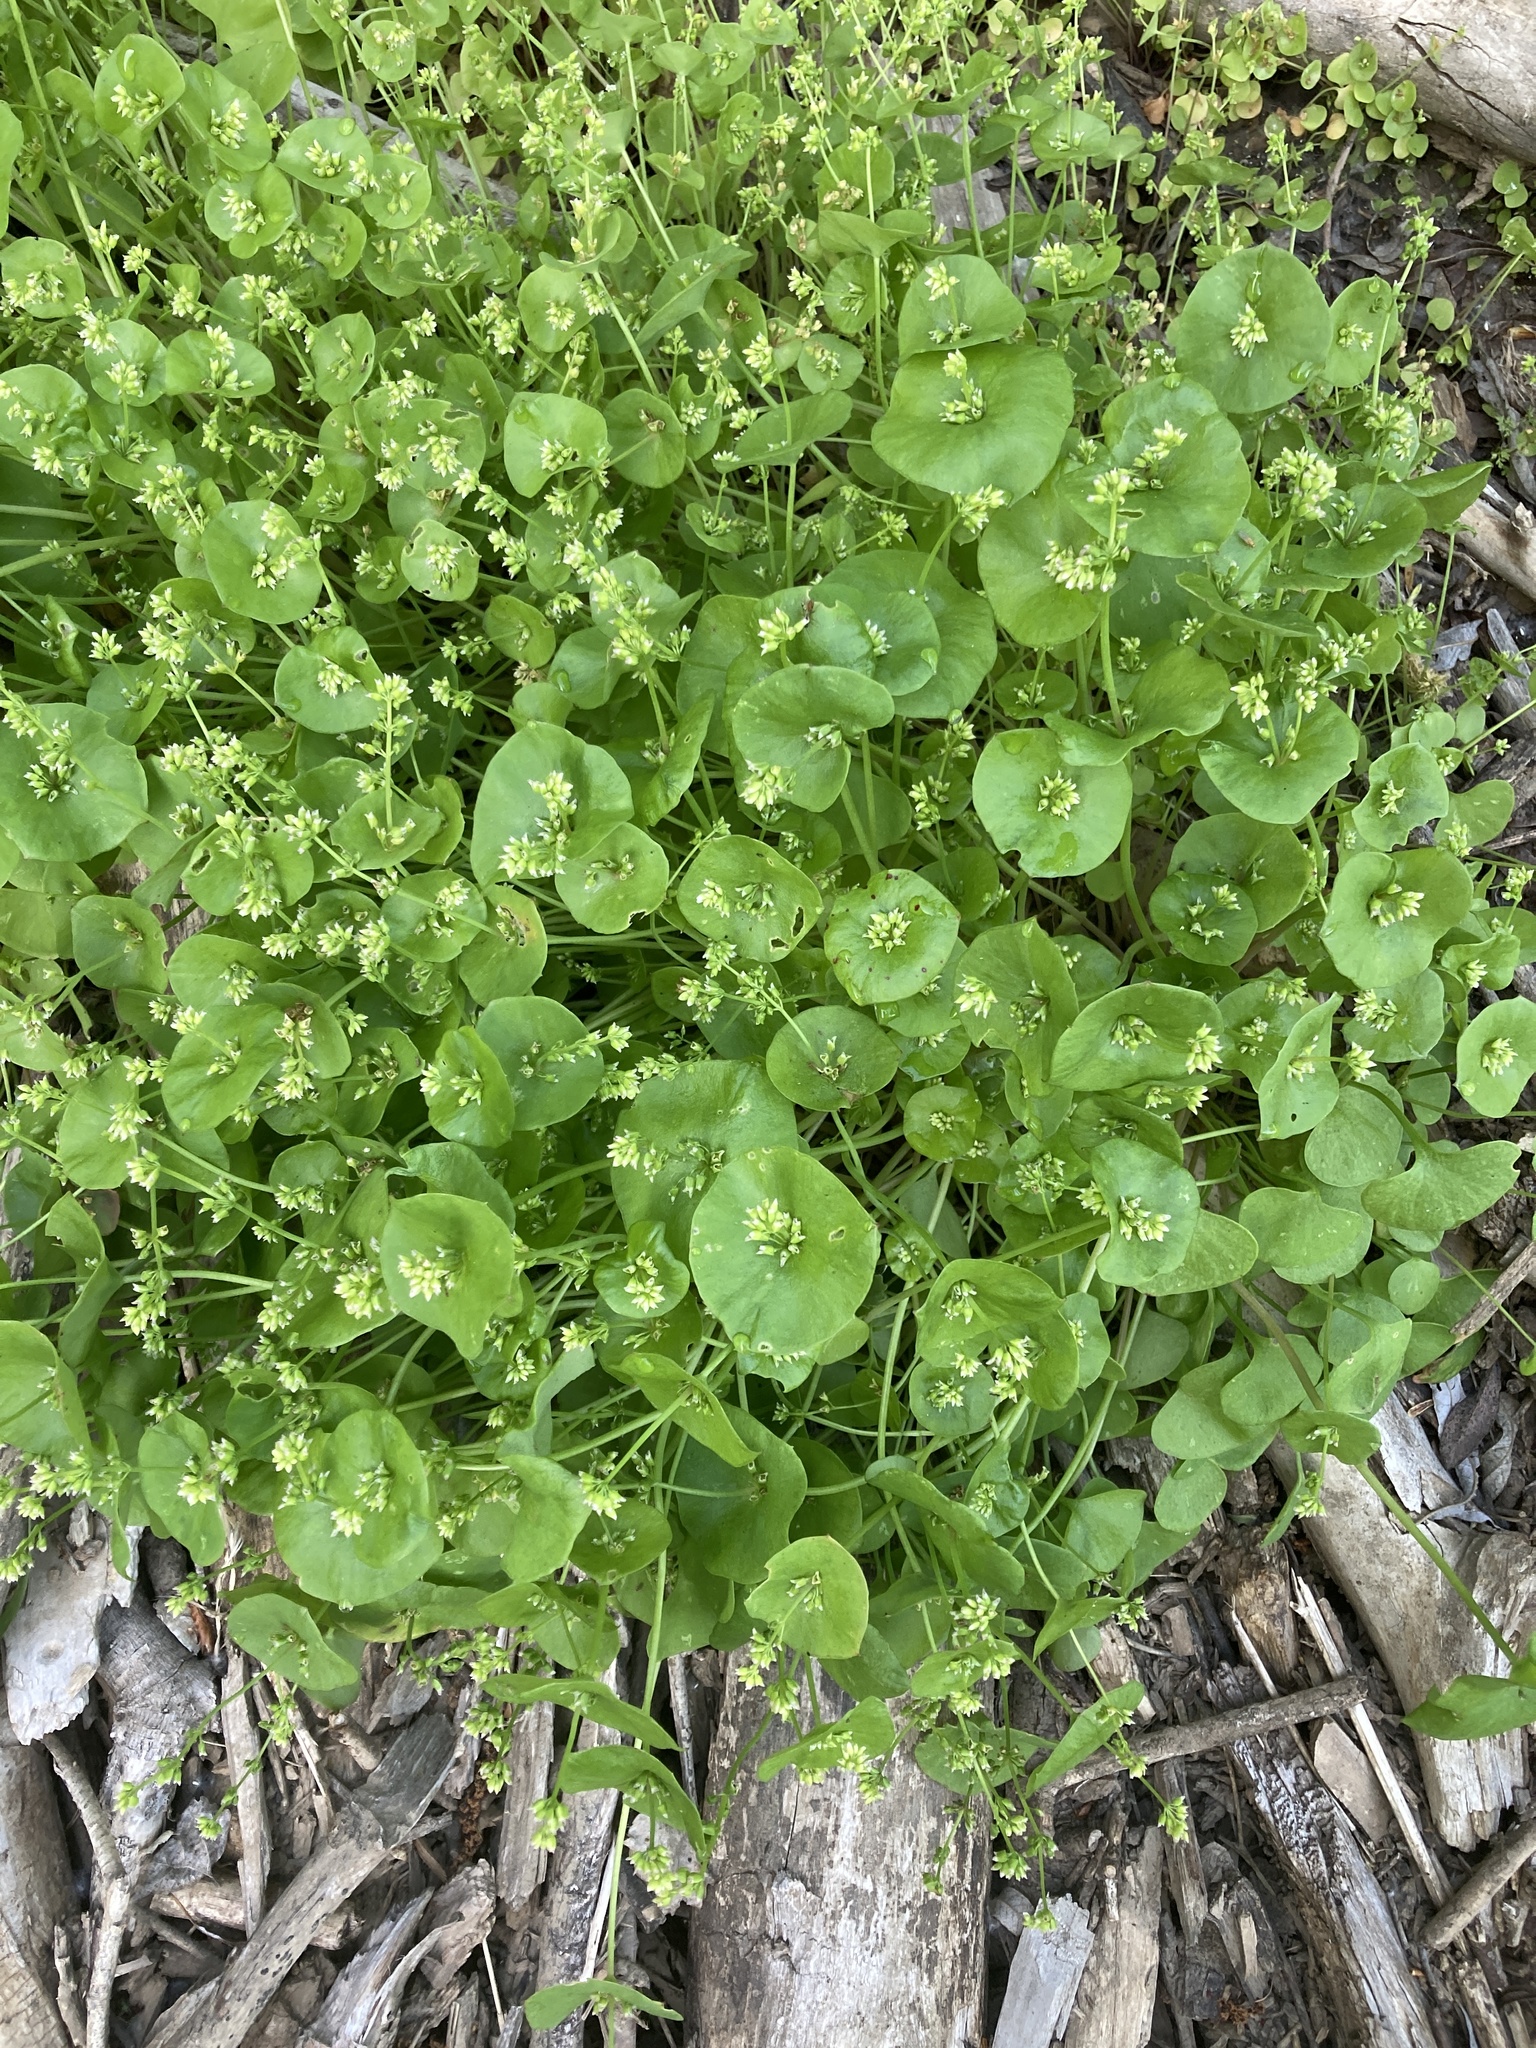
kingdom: Plantae
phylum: Tracheophyta
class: Magnoliopsida
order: Caryophyllales
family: Montiaceae
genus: Claytonia
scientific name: Claytonia perfoliata
